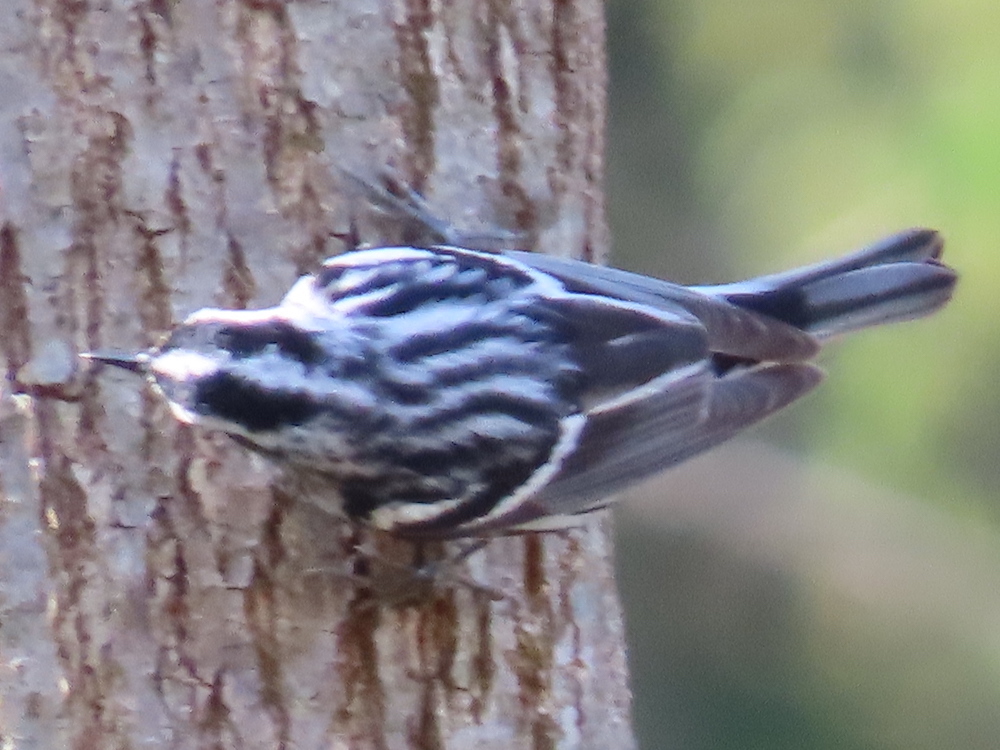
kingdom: Animalia
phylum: Chordata
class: Aves
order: Passeriformes
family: Parulidae
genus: Mniotilta
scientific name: Mniotilta varia
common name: Black-and-white warbler
